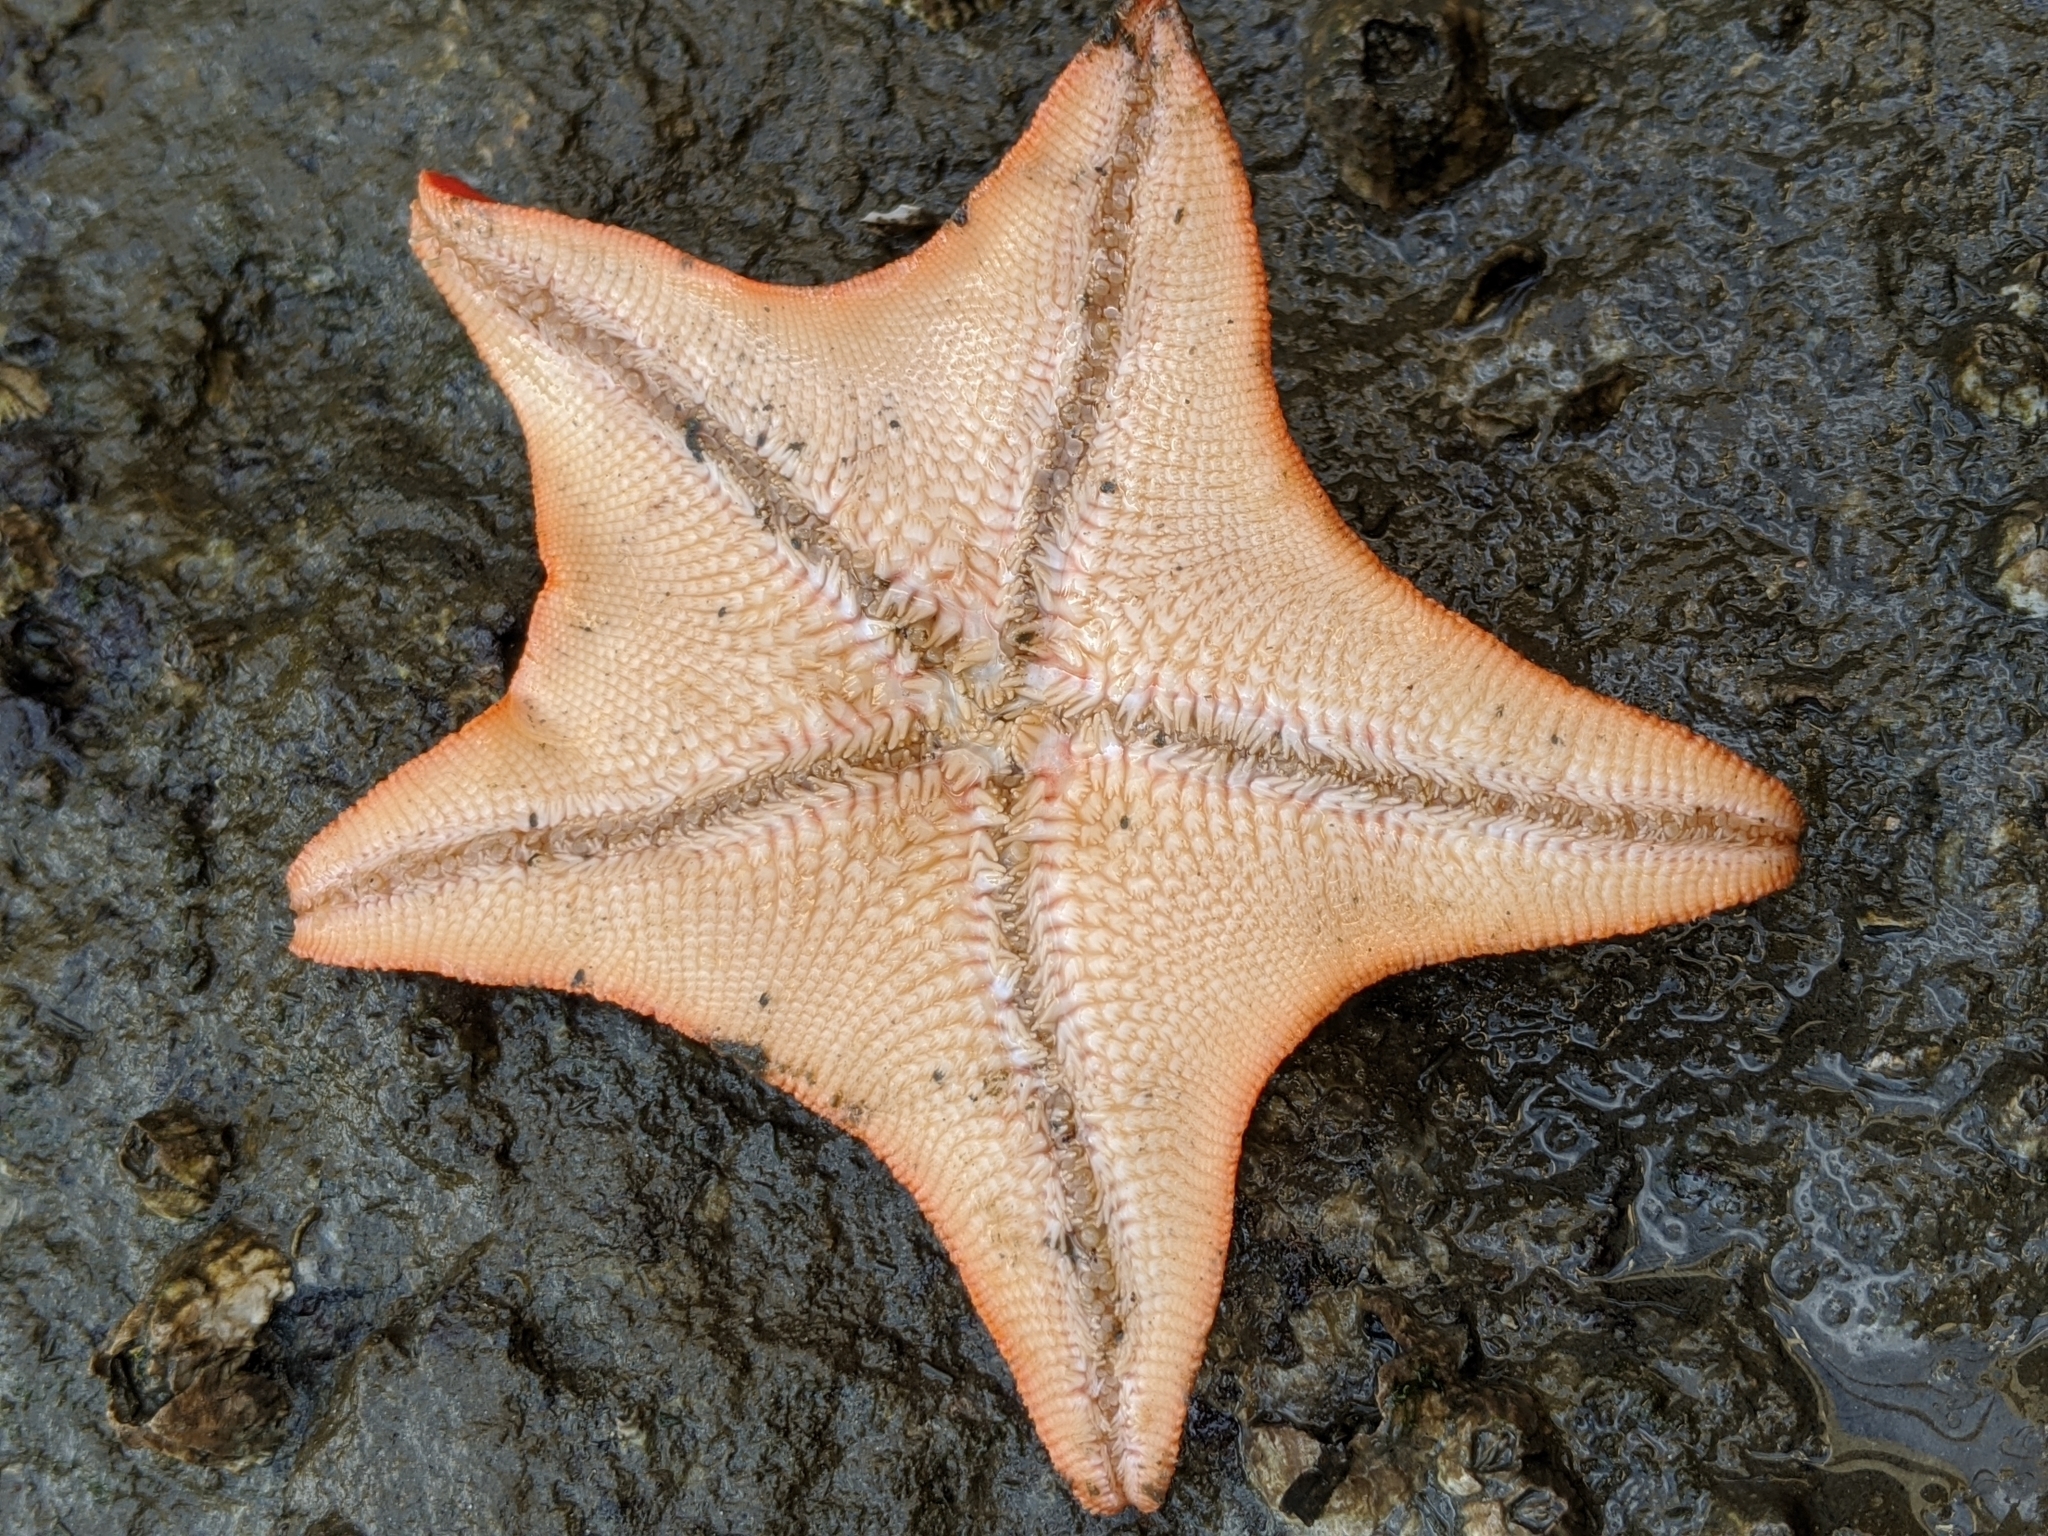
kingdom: Animalia
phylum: Echinodermata
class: Asteroidea
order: Valvatida
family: Asterinidae
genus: Patiria
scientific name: Patiria miniata
